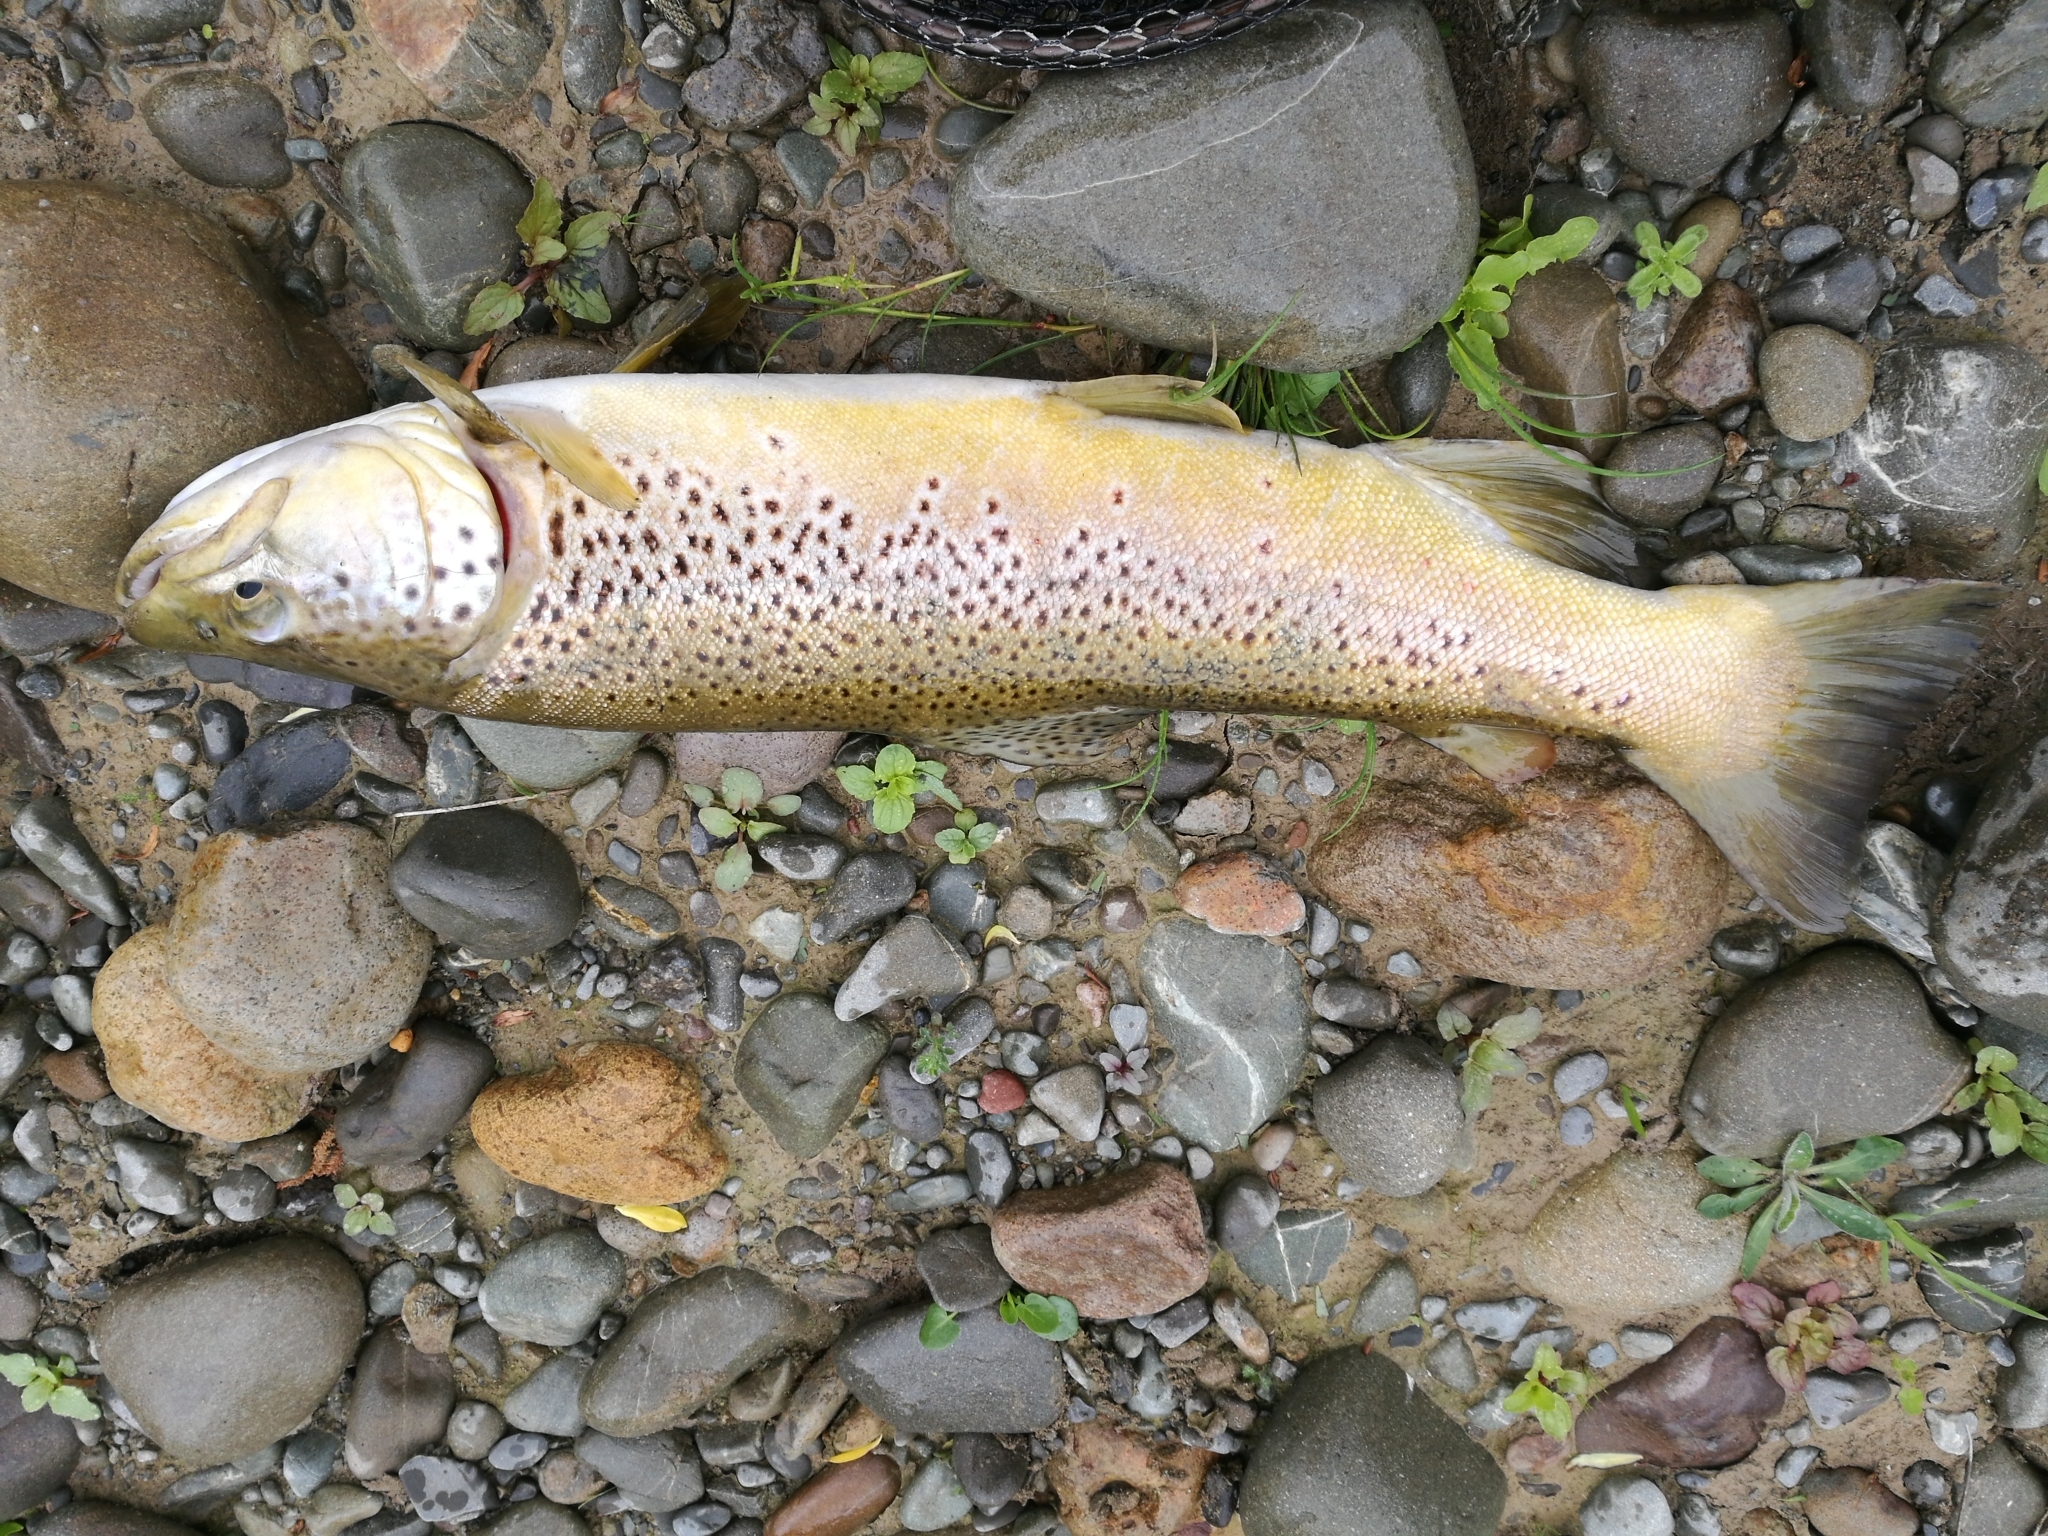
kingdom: Animalia
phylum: Chordata
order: Salmoniformes
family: Salmonidae
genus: Salmo
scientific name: Salmo trutta
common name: Brown trout
